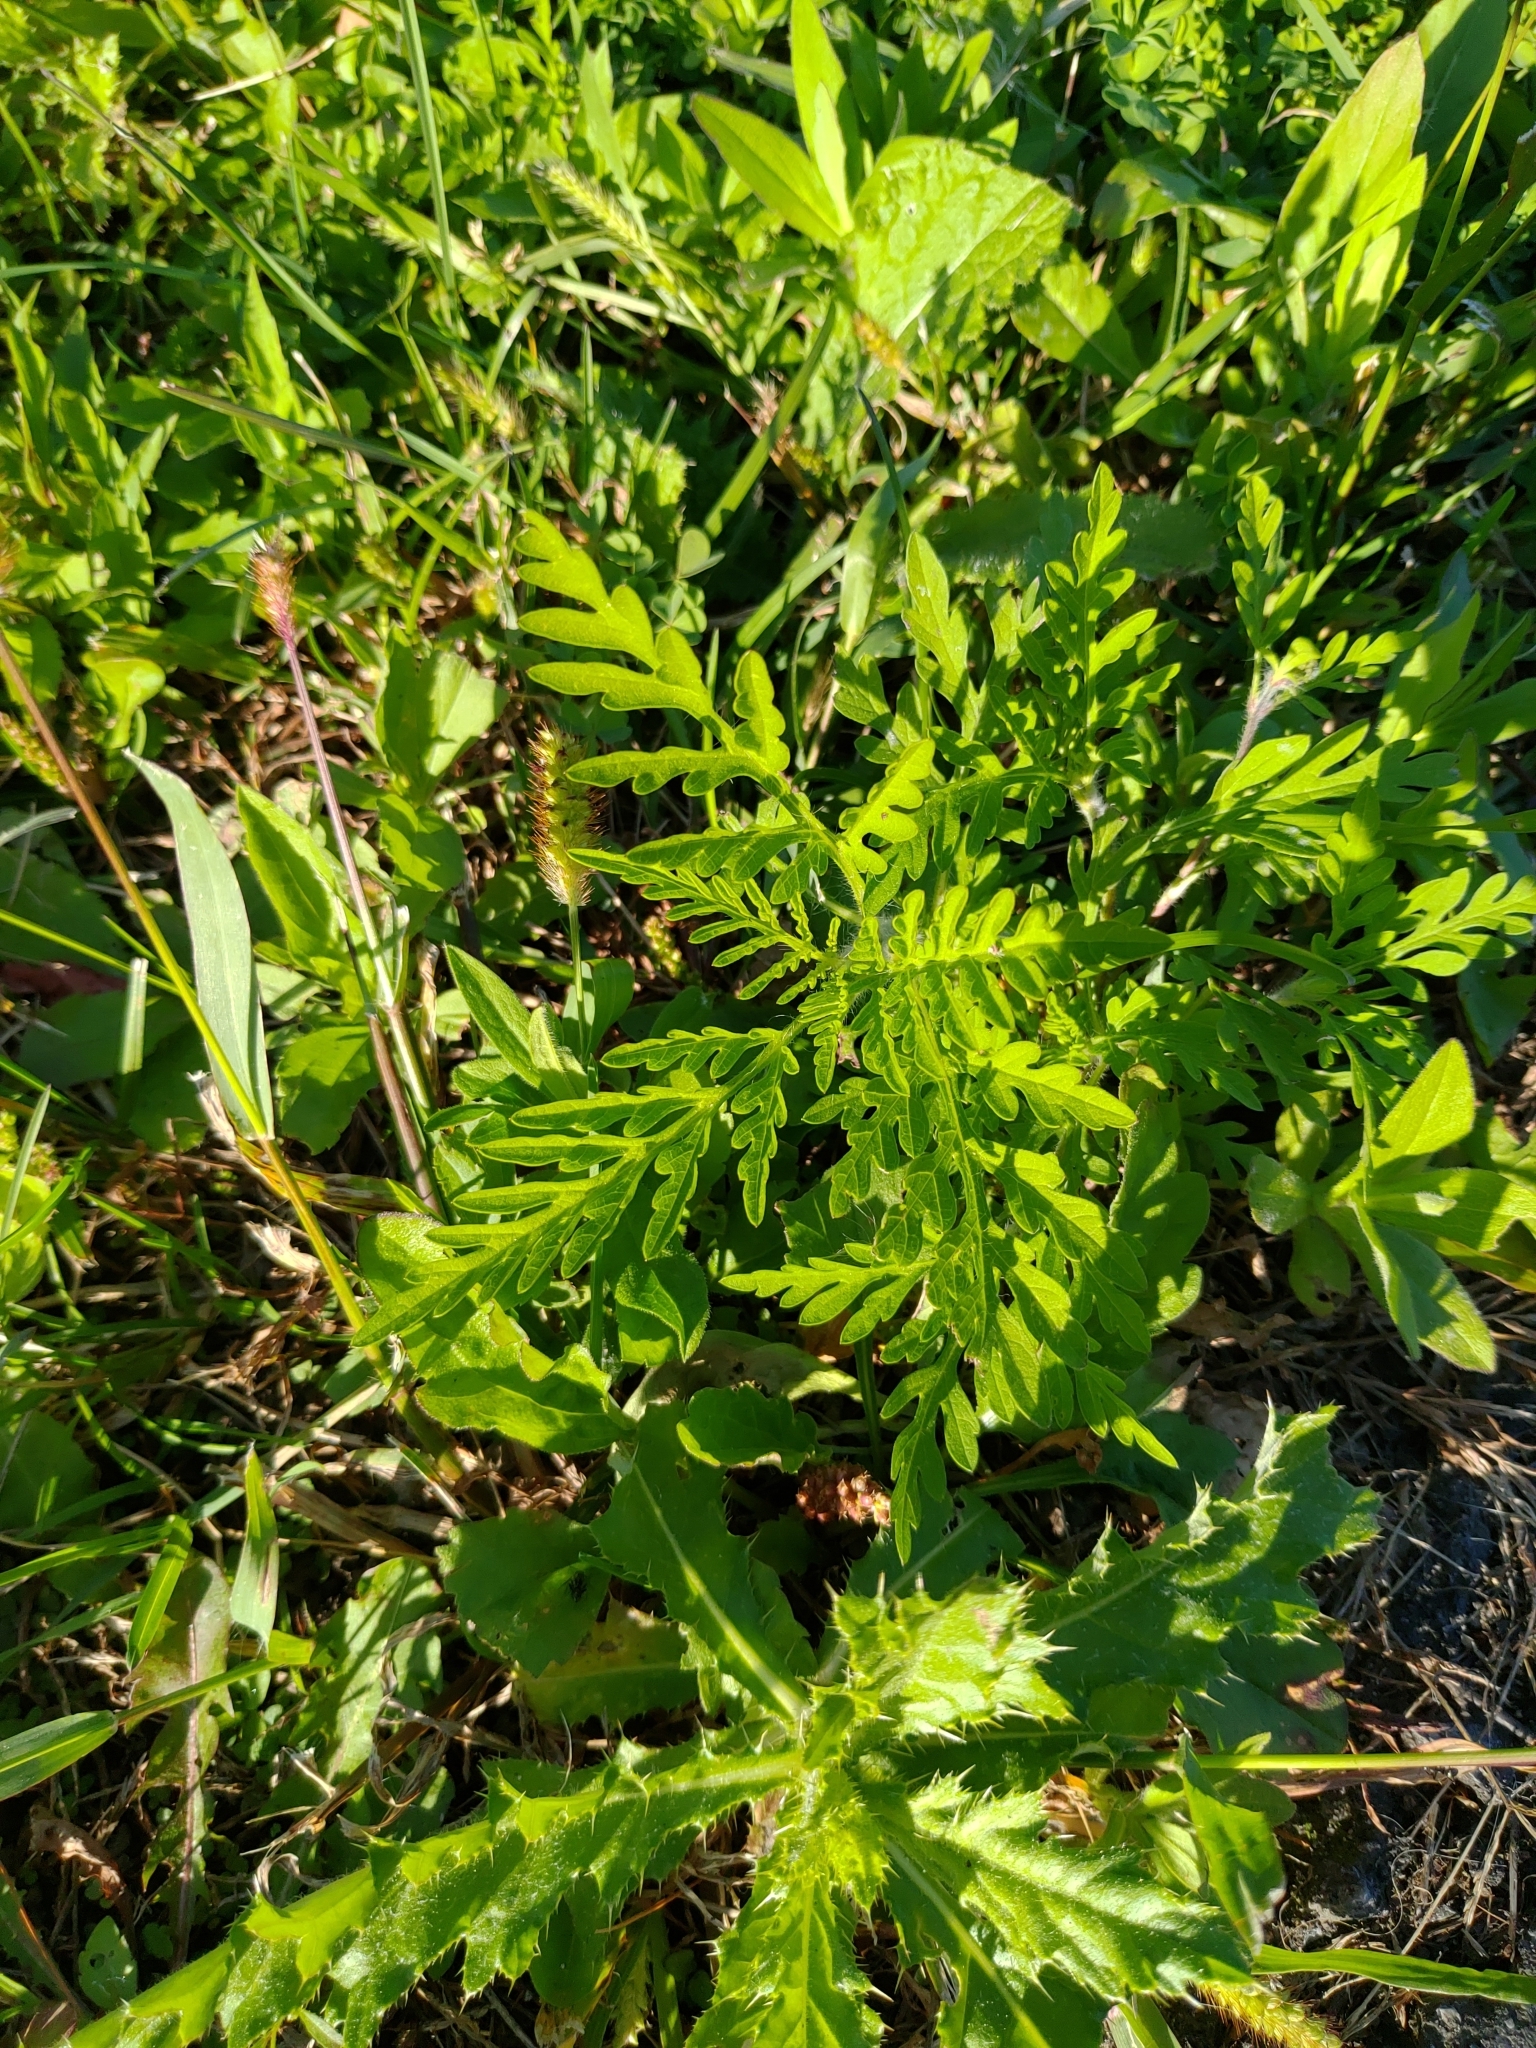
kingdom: Plantae
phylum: Tracheophyta
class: Magnoliopsida
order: Asterales
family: Asteraceae
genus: Tanacetum
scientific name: Tanacetum vulgare
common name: Common tansy
